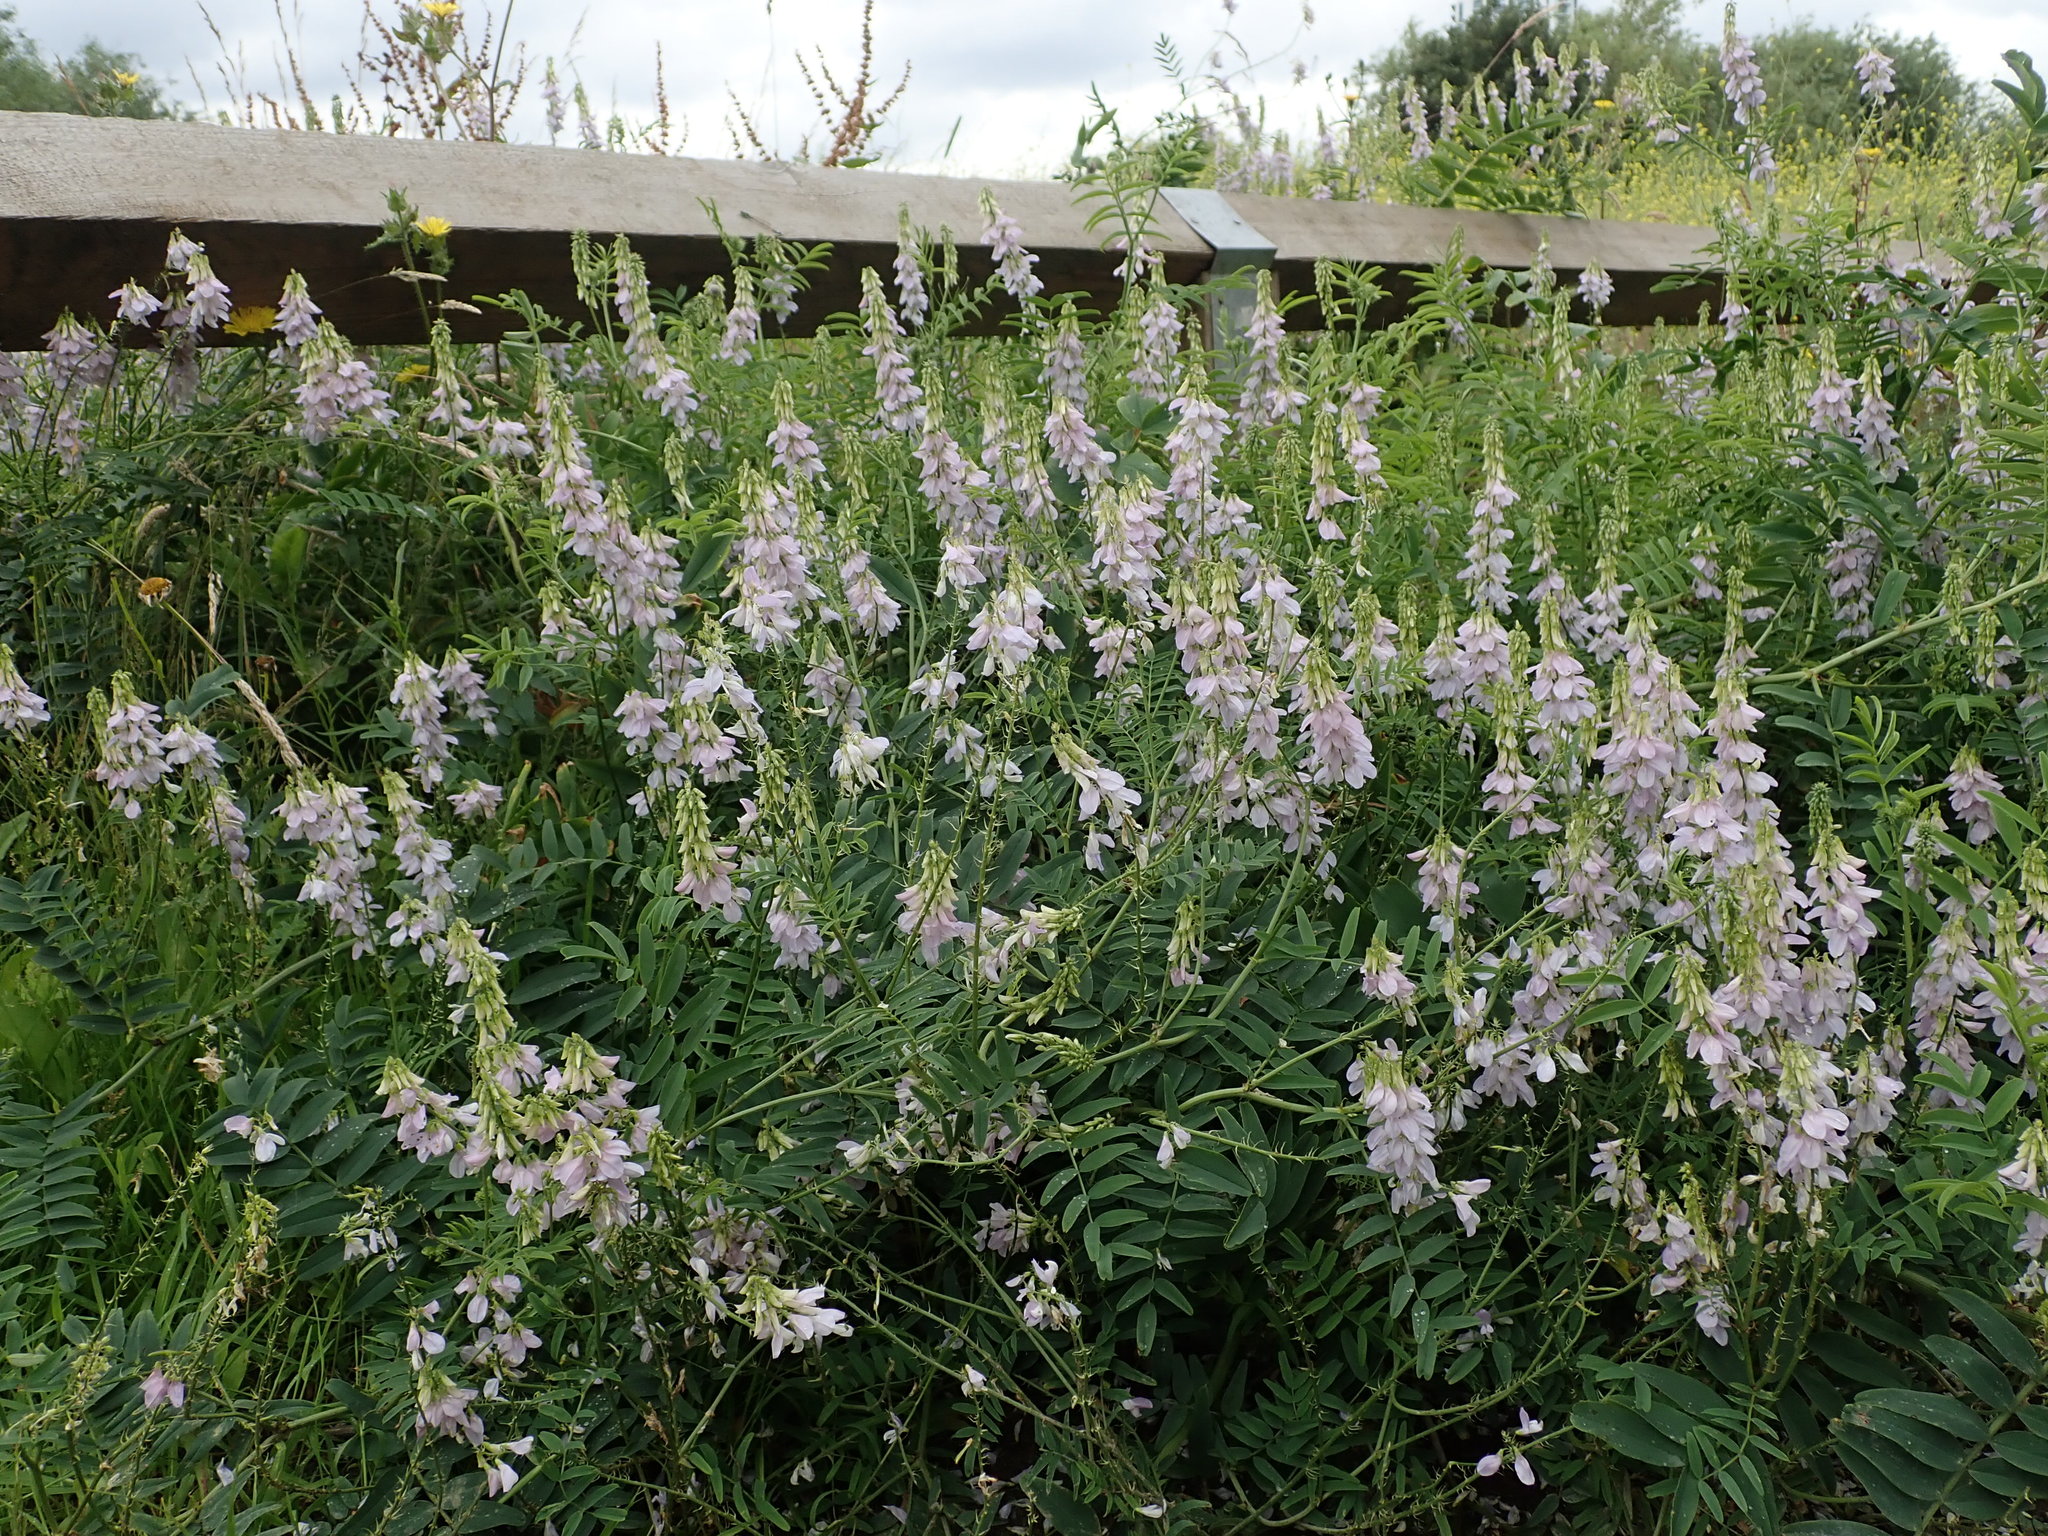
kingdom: Plantae
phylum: Tracheophyta
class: Magnoliopsida
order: Fabales
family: Fabaceae
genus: Galega
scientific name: Galega officinalis
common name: Goat's-rue
